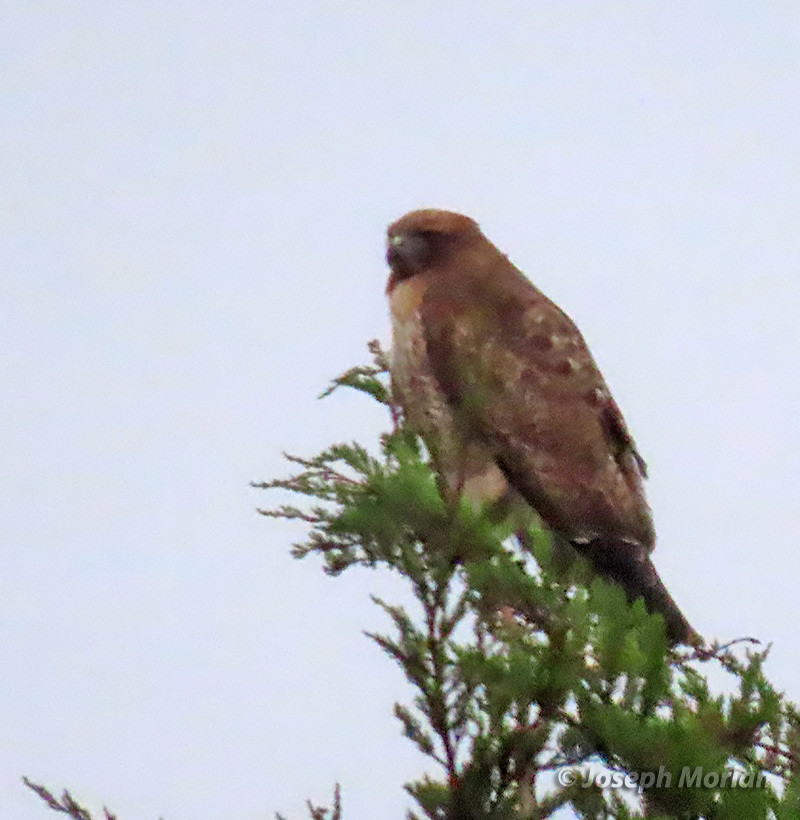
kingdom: Animalia
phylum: Chordata
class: Aves
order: Accipitriformes
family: Accipitridae
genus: Buteo
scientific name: Buteo jamaicensis
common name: Red-tailed hawk
